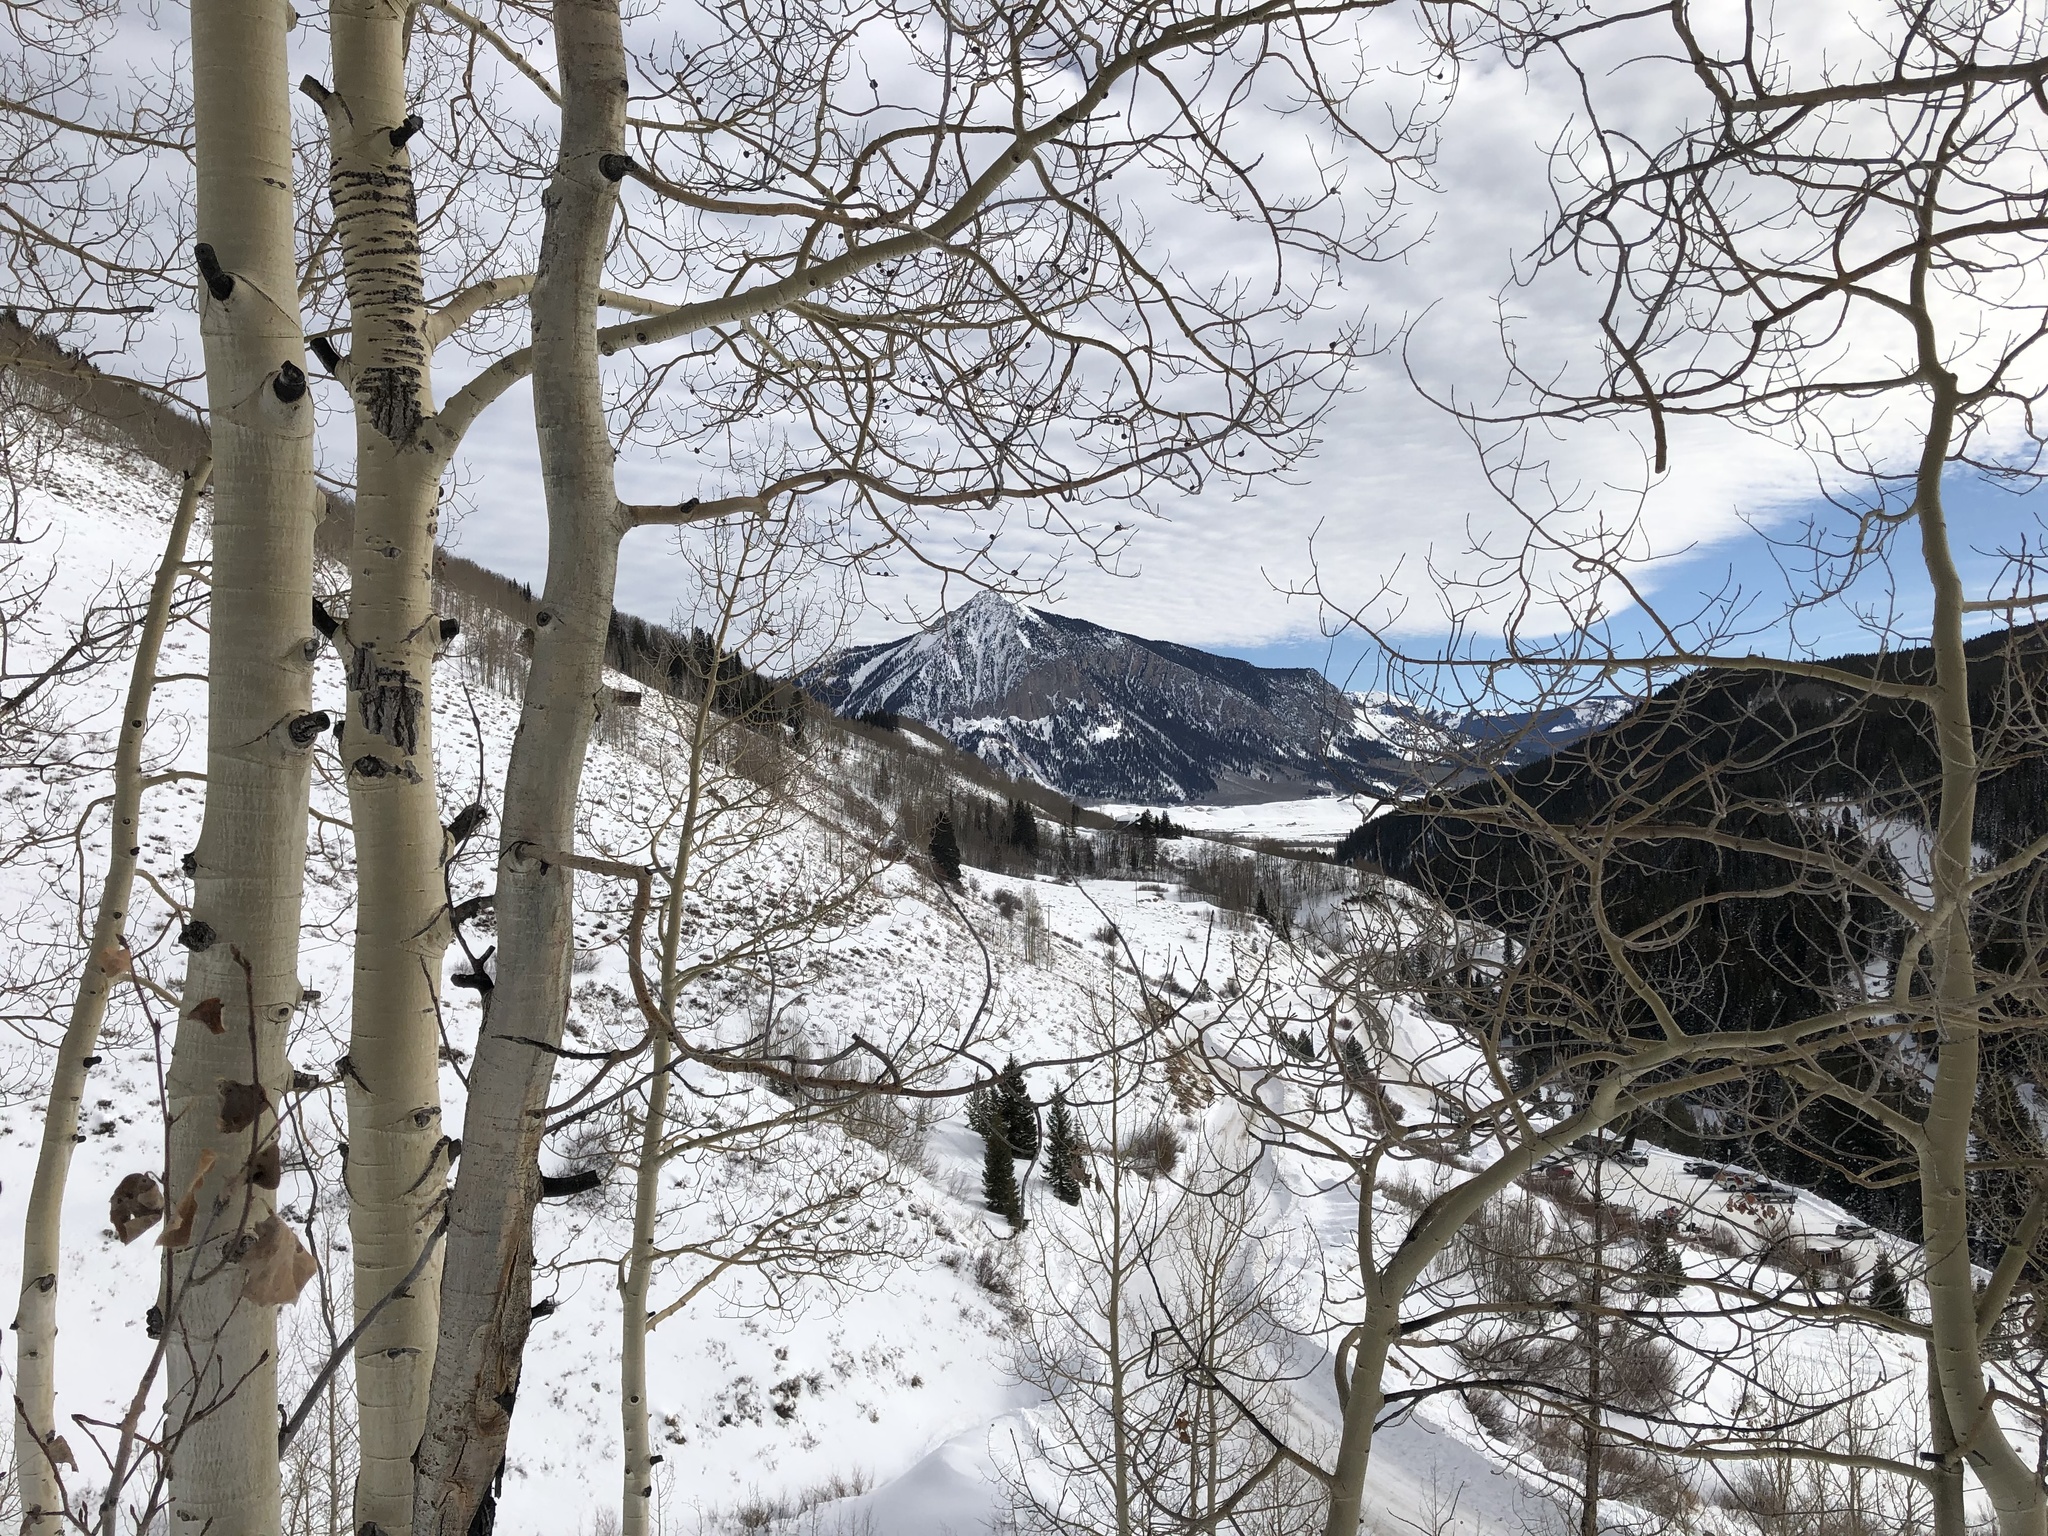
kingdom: Plantae
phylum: Tracheophyta
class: Magnoliopsida
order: Malpighiales
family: Salicaceae
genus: Populus
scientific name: Populus tremuloides
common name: Quaking aspen
